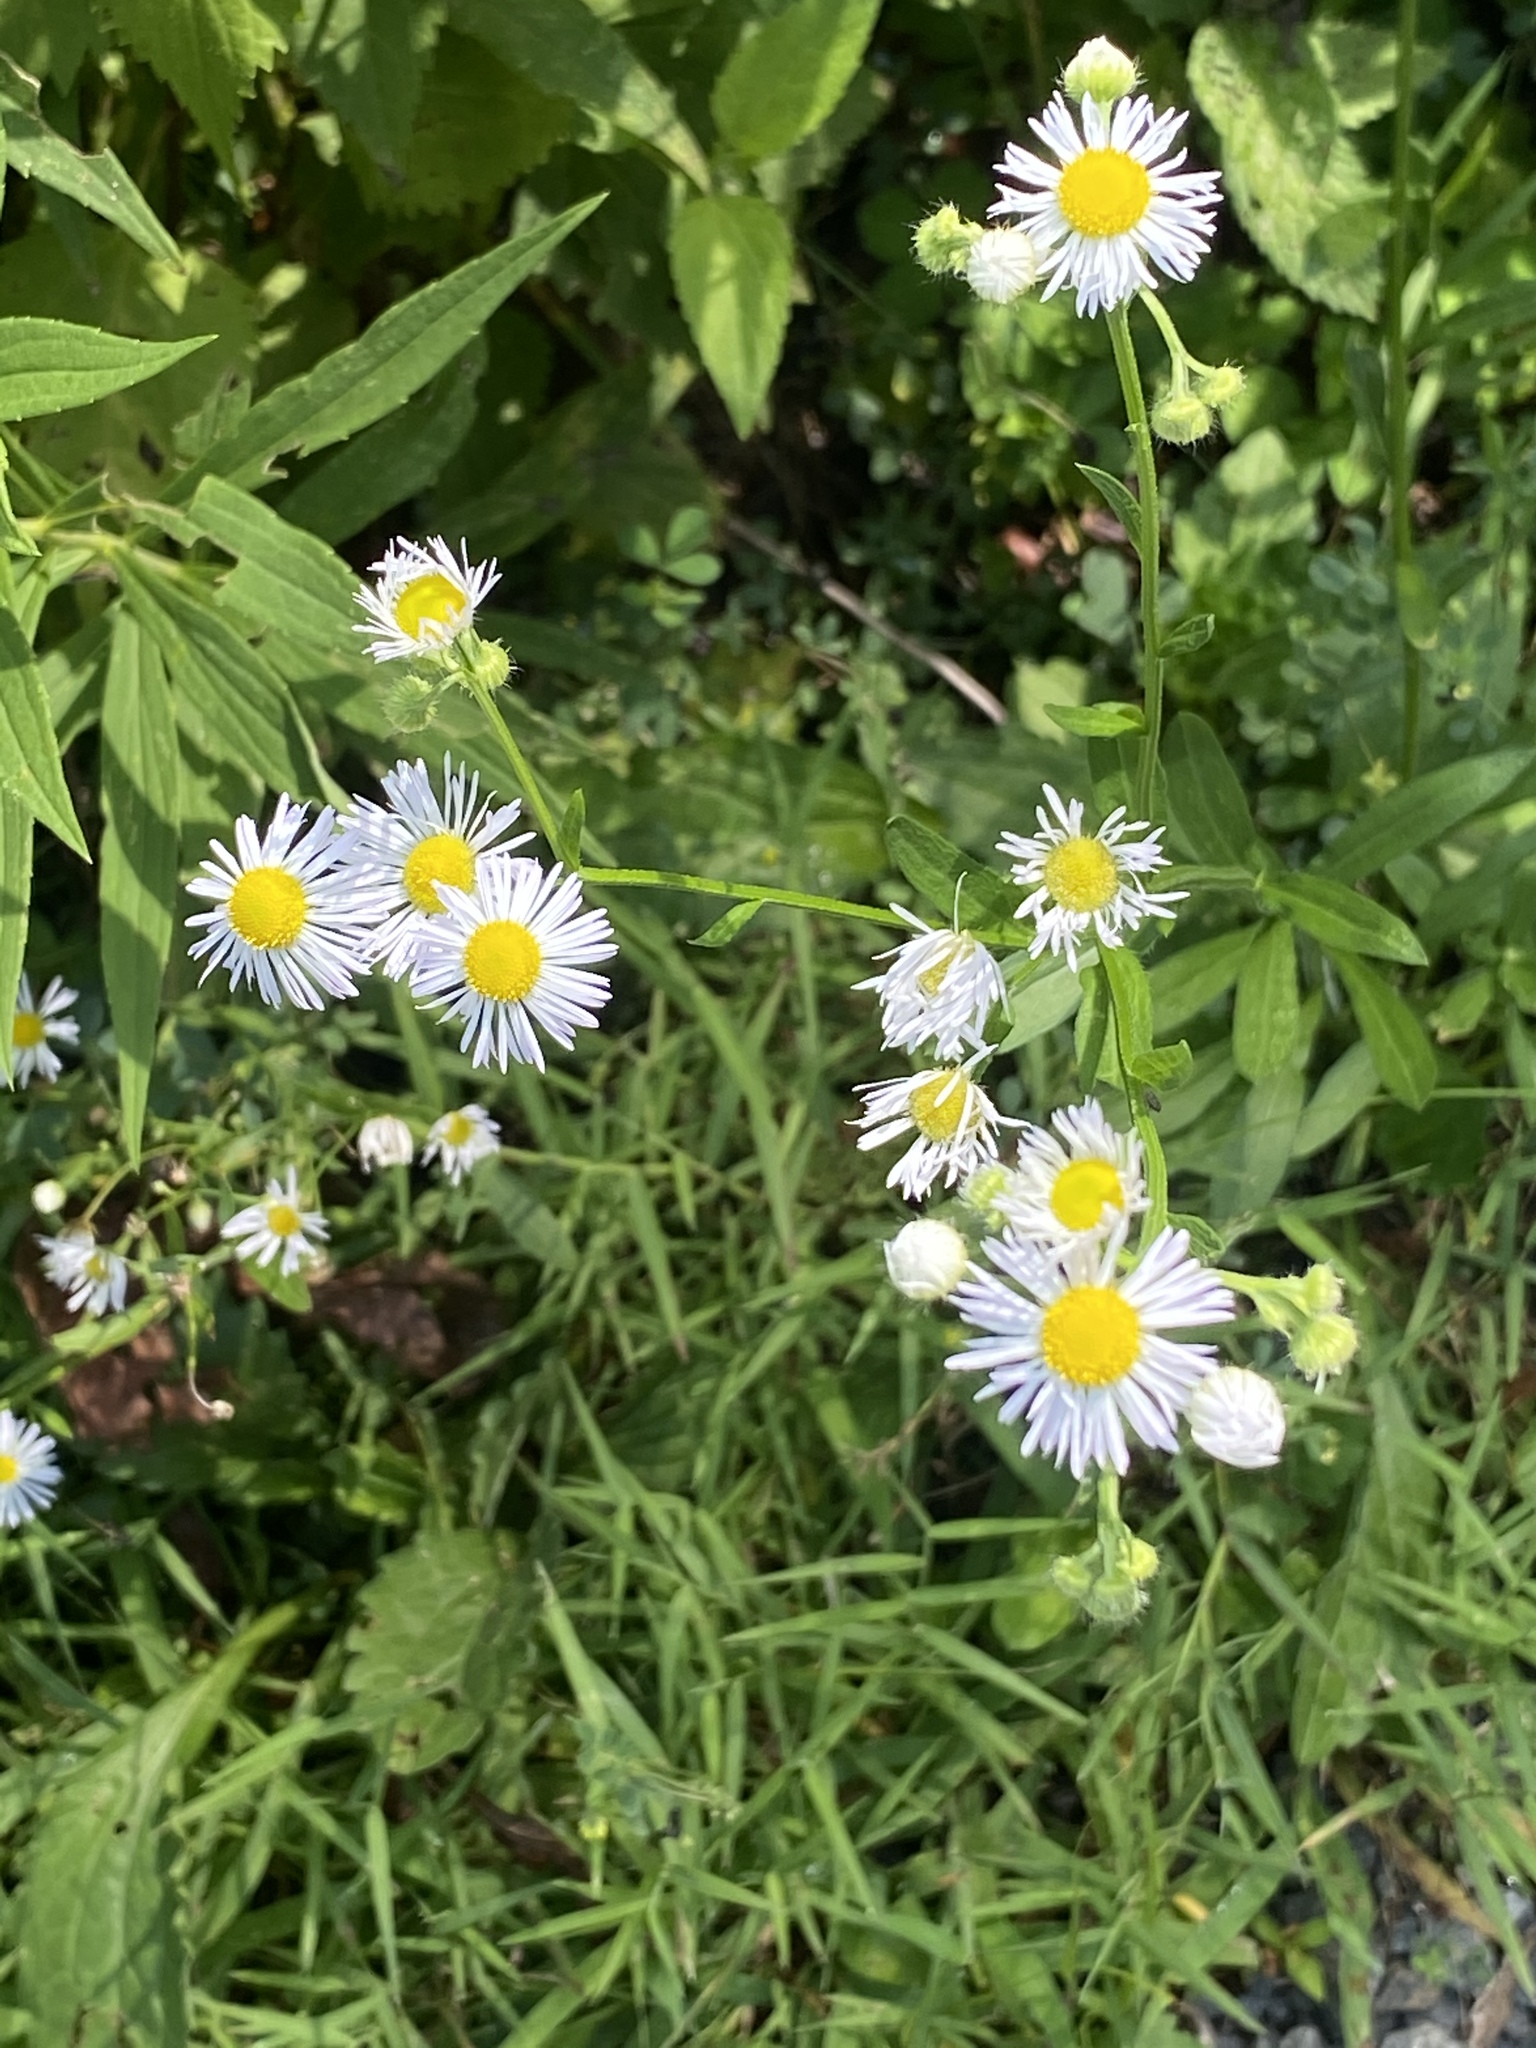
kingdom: Plantae
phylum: Tracheophyta
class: Magnoliopsida
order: Asterales
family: Asteraceae
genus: Erigeron
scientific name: Erigeron strigosus
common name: Common eastern fleabane
